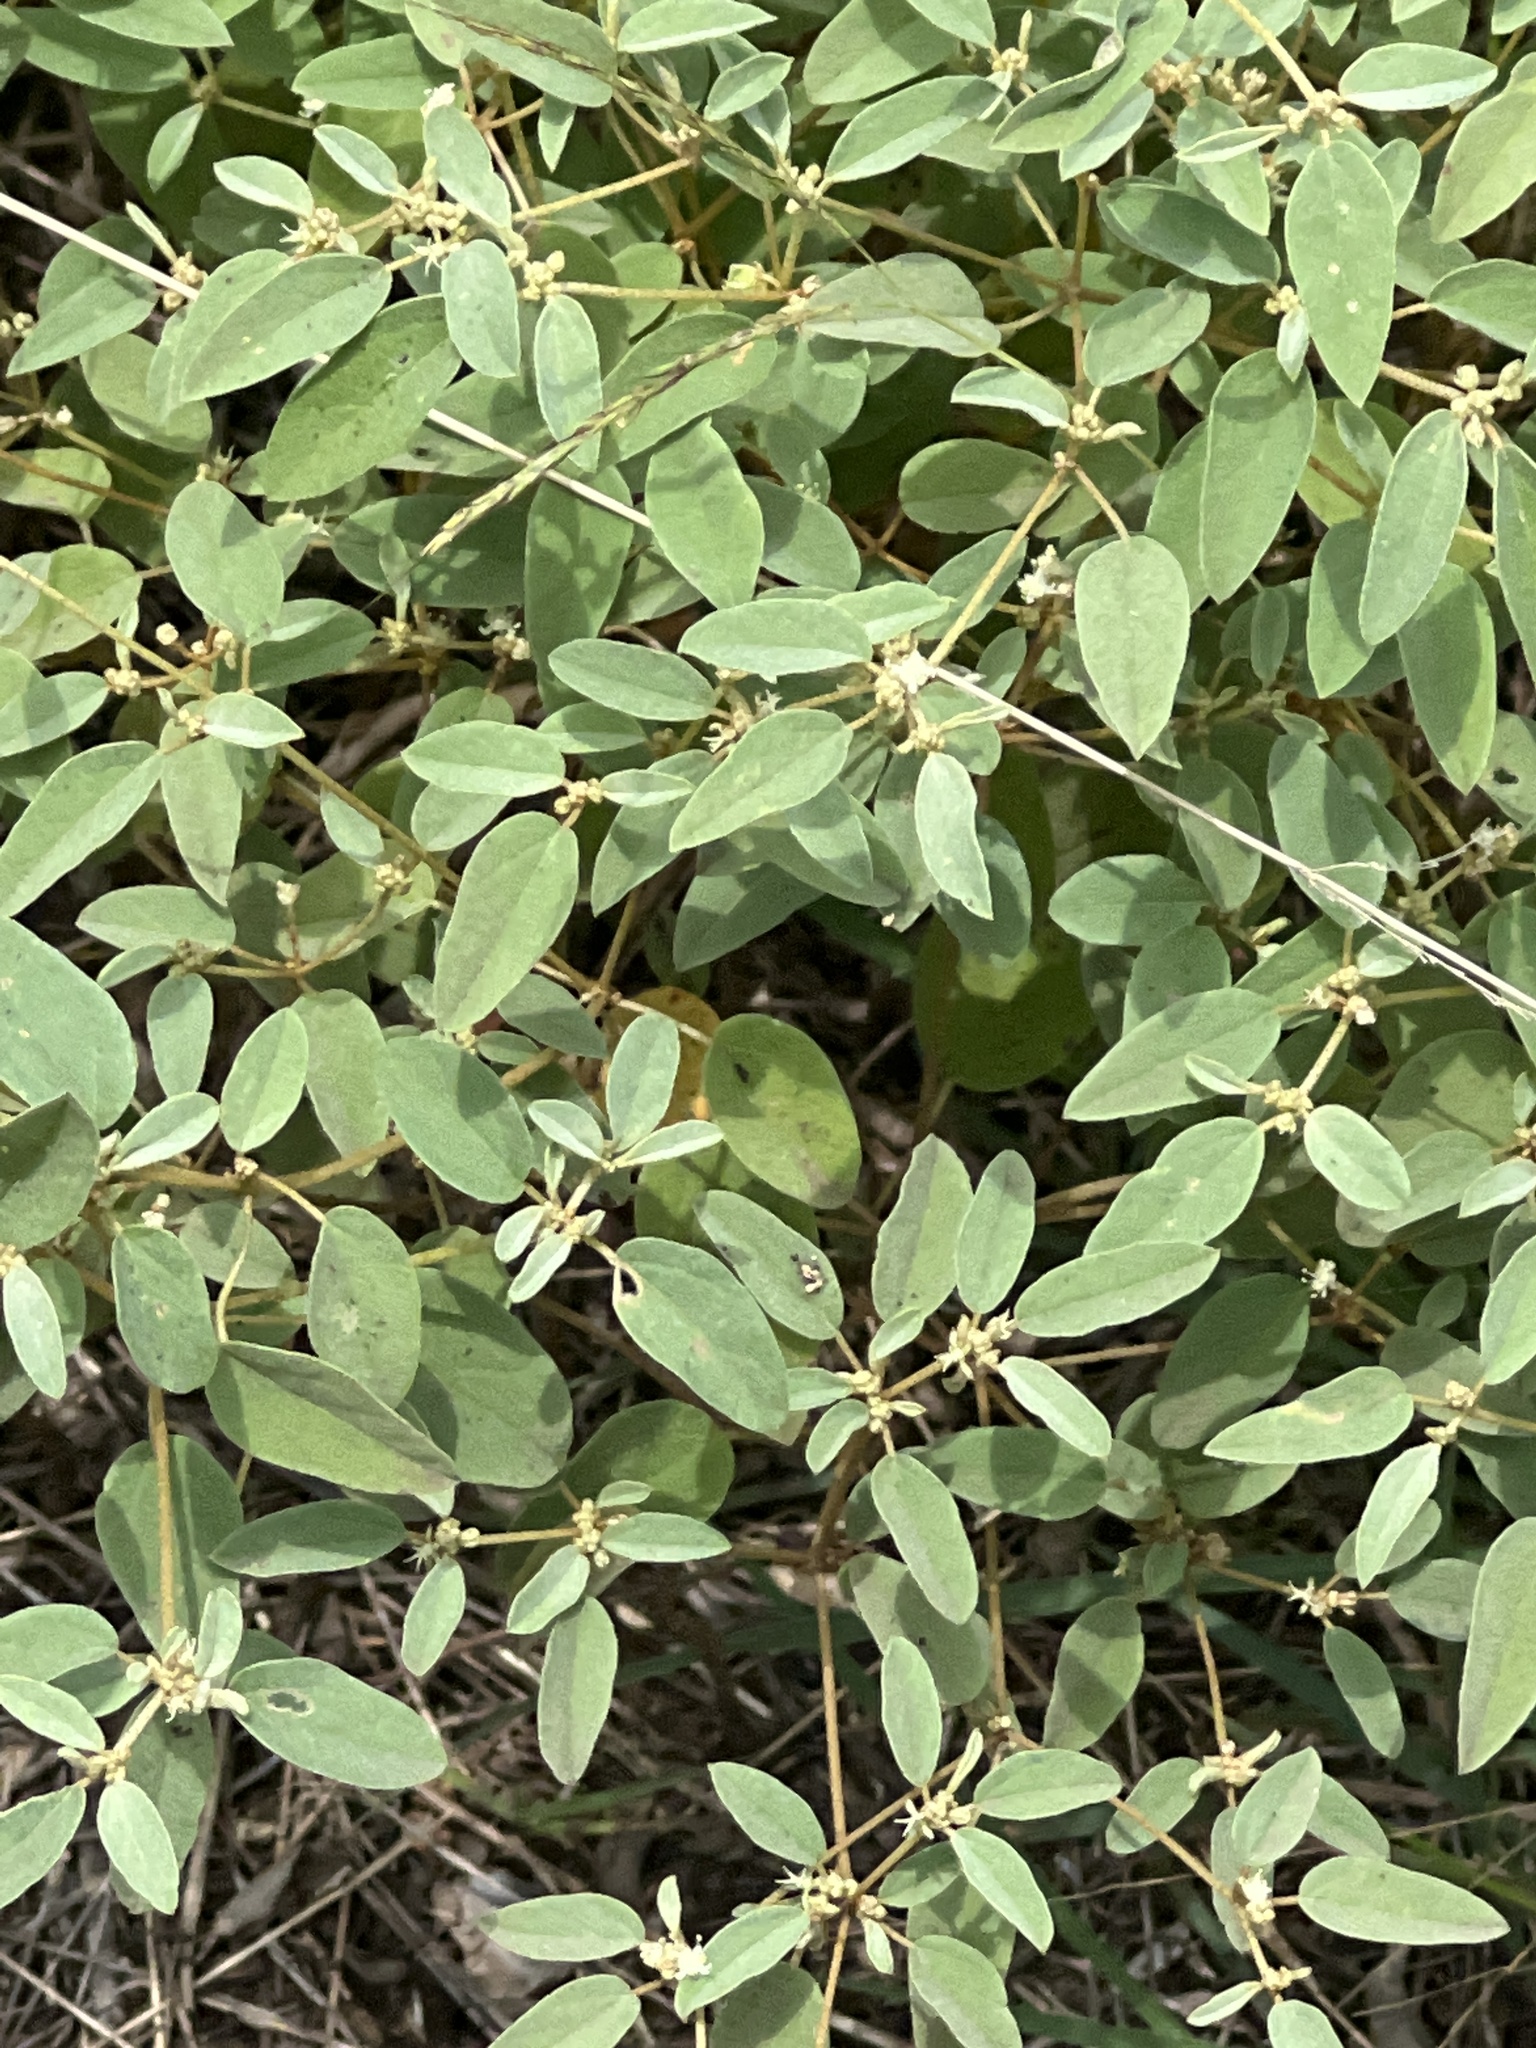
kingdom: Plantae
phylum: Tracheophyta
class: Magnoliopsida
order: Malpighiales
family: Euphorbiaceae
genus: Croton
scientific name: Croton monanthogynus
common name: One-seed croton
